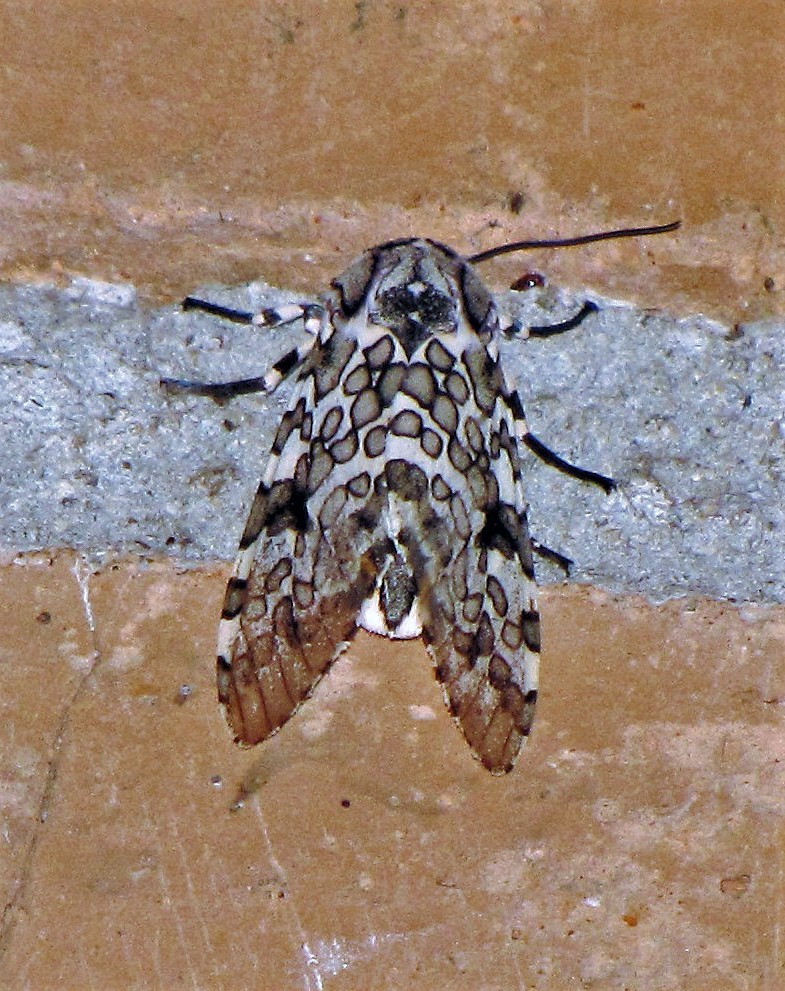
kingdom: Animalia
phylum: Arthropoda
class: Insecta
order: Lepidoptera
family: Erebidae
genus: Hypercompe
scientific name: Hypercompe detecta
